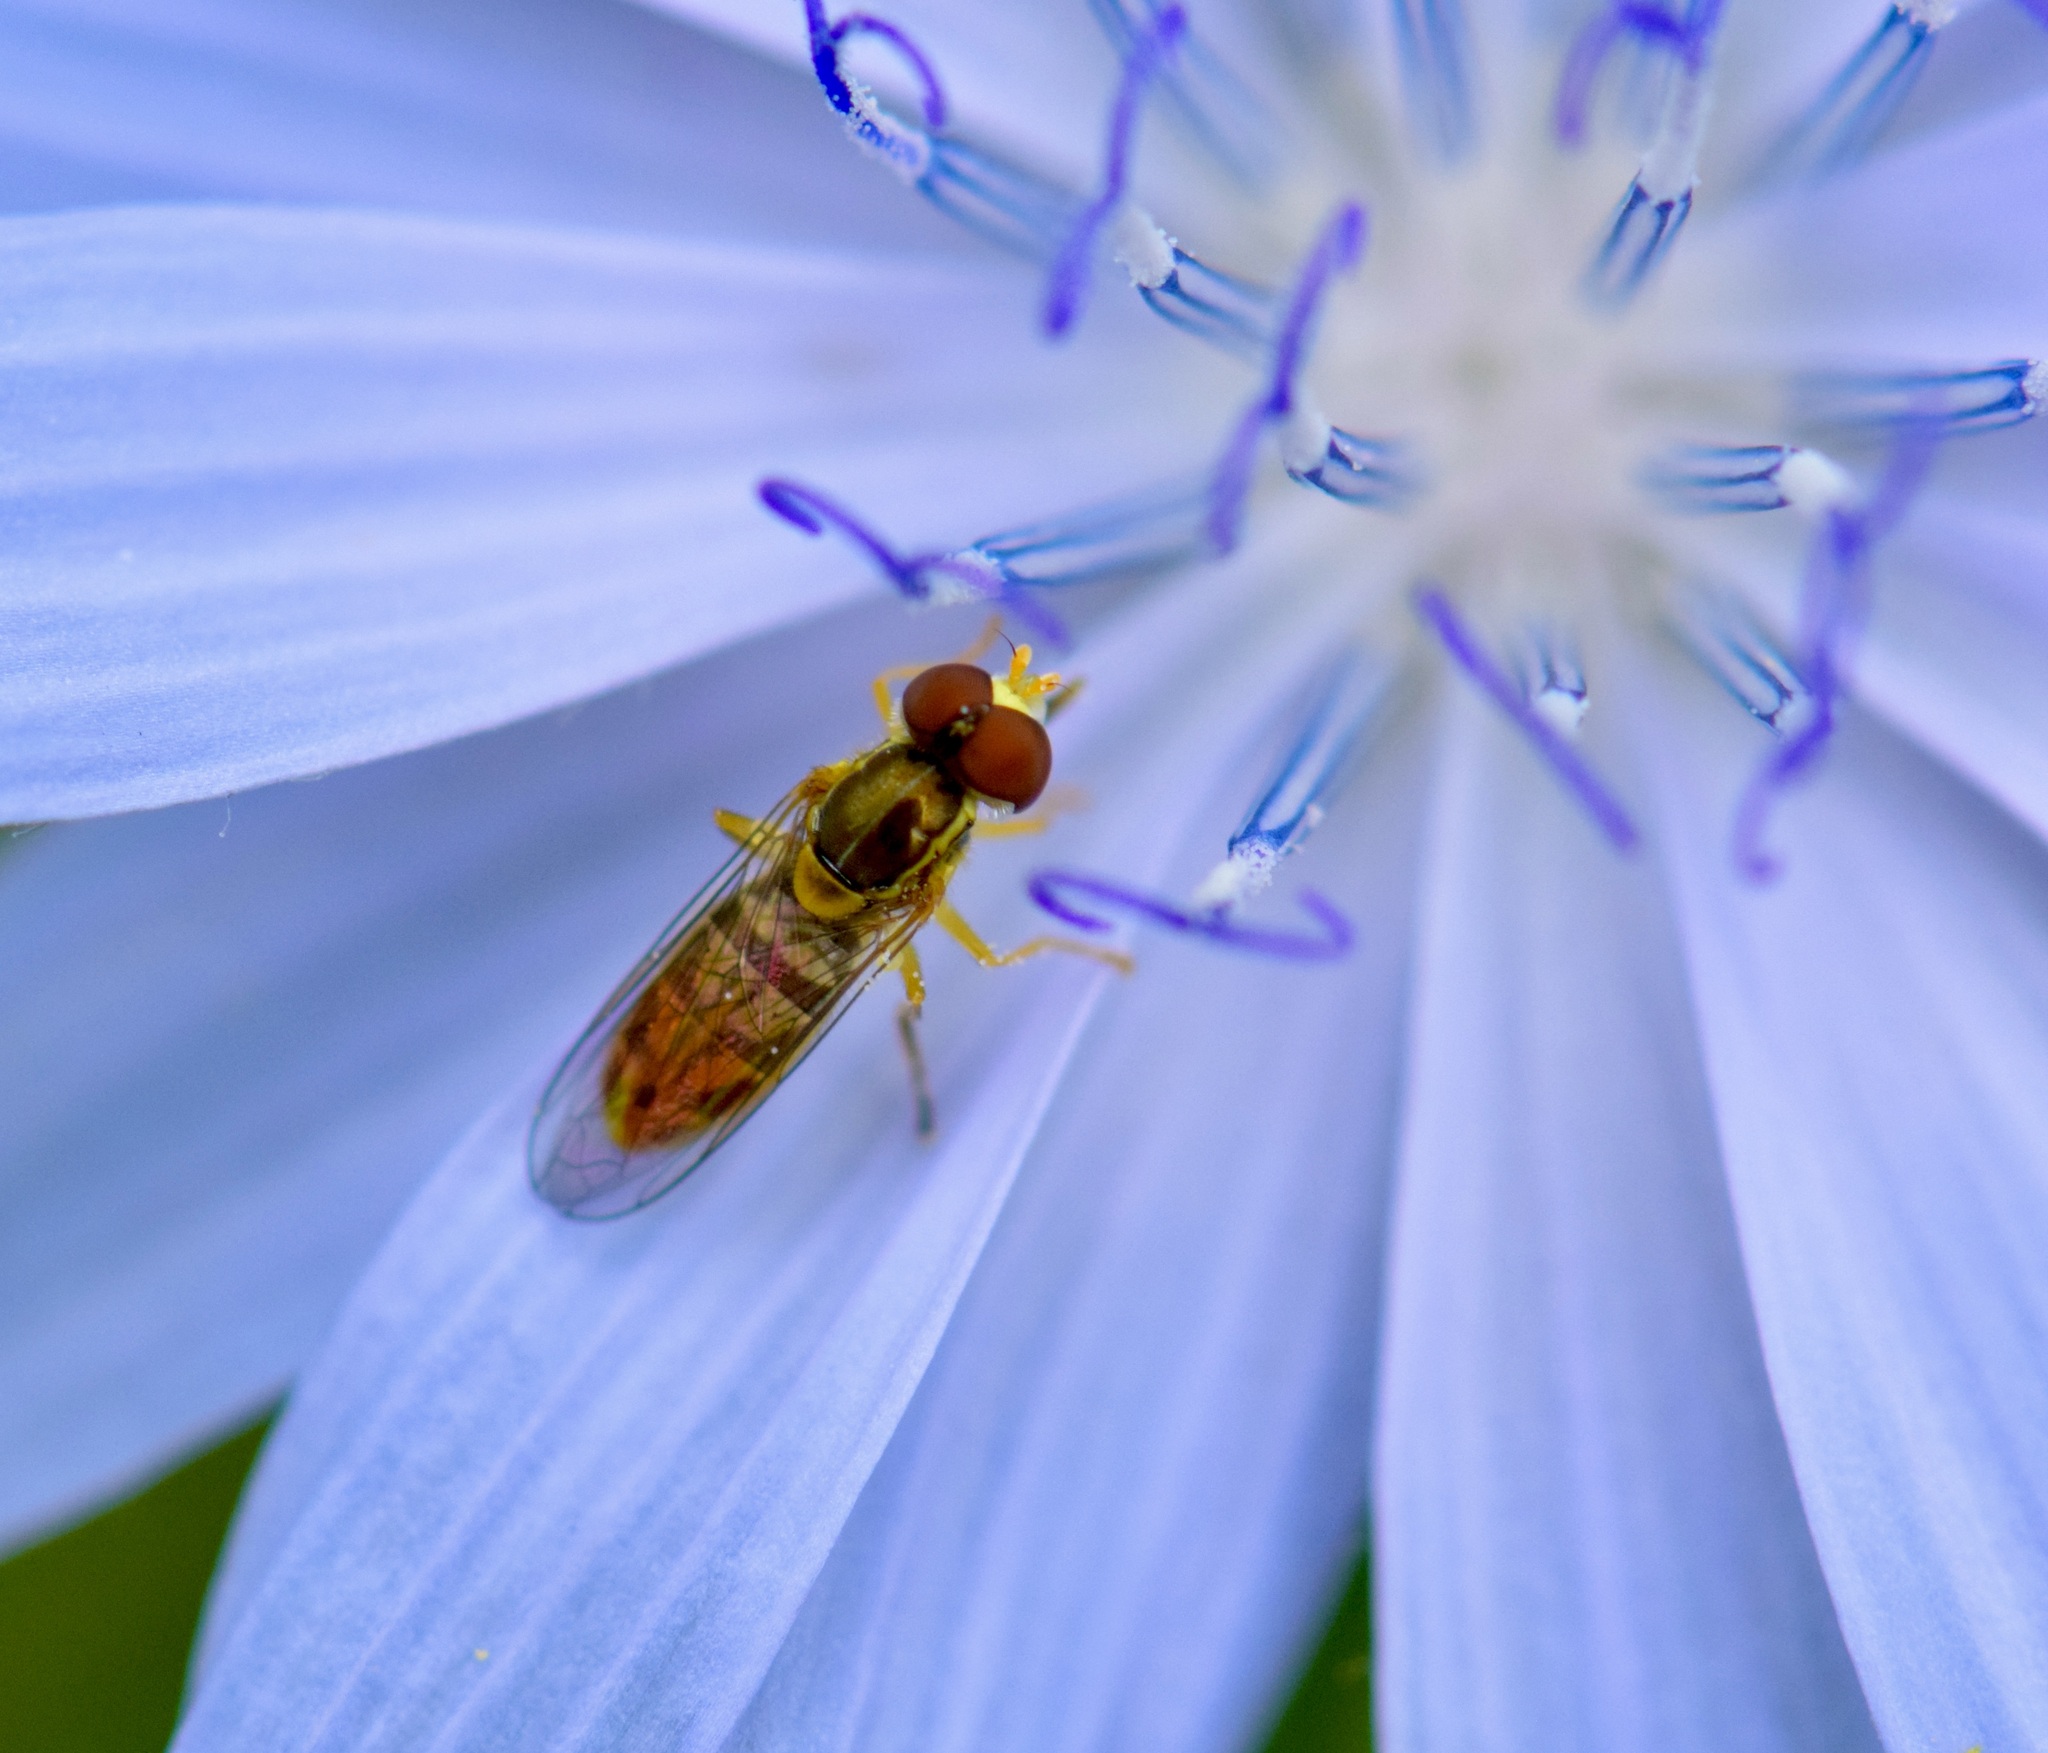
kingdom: Animalia
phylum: Arthropoda
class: Insecta
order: Diptera
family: Syrphidae
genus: Toxomerus
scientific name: Toxomerus marginatus
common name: Syrphid fly
